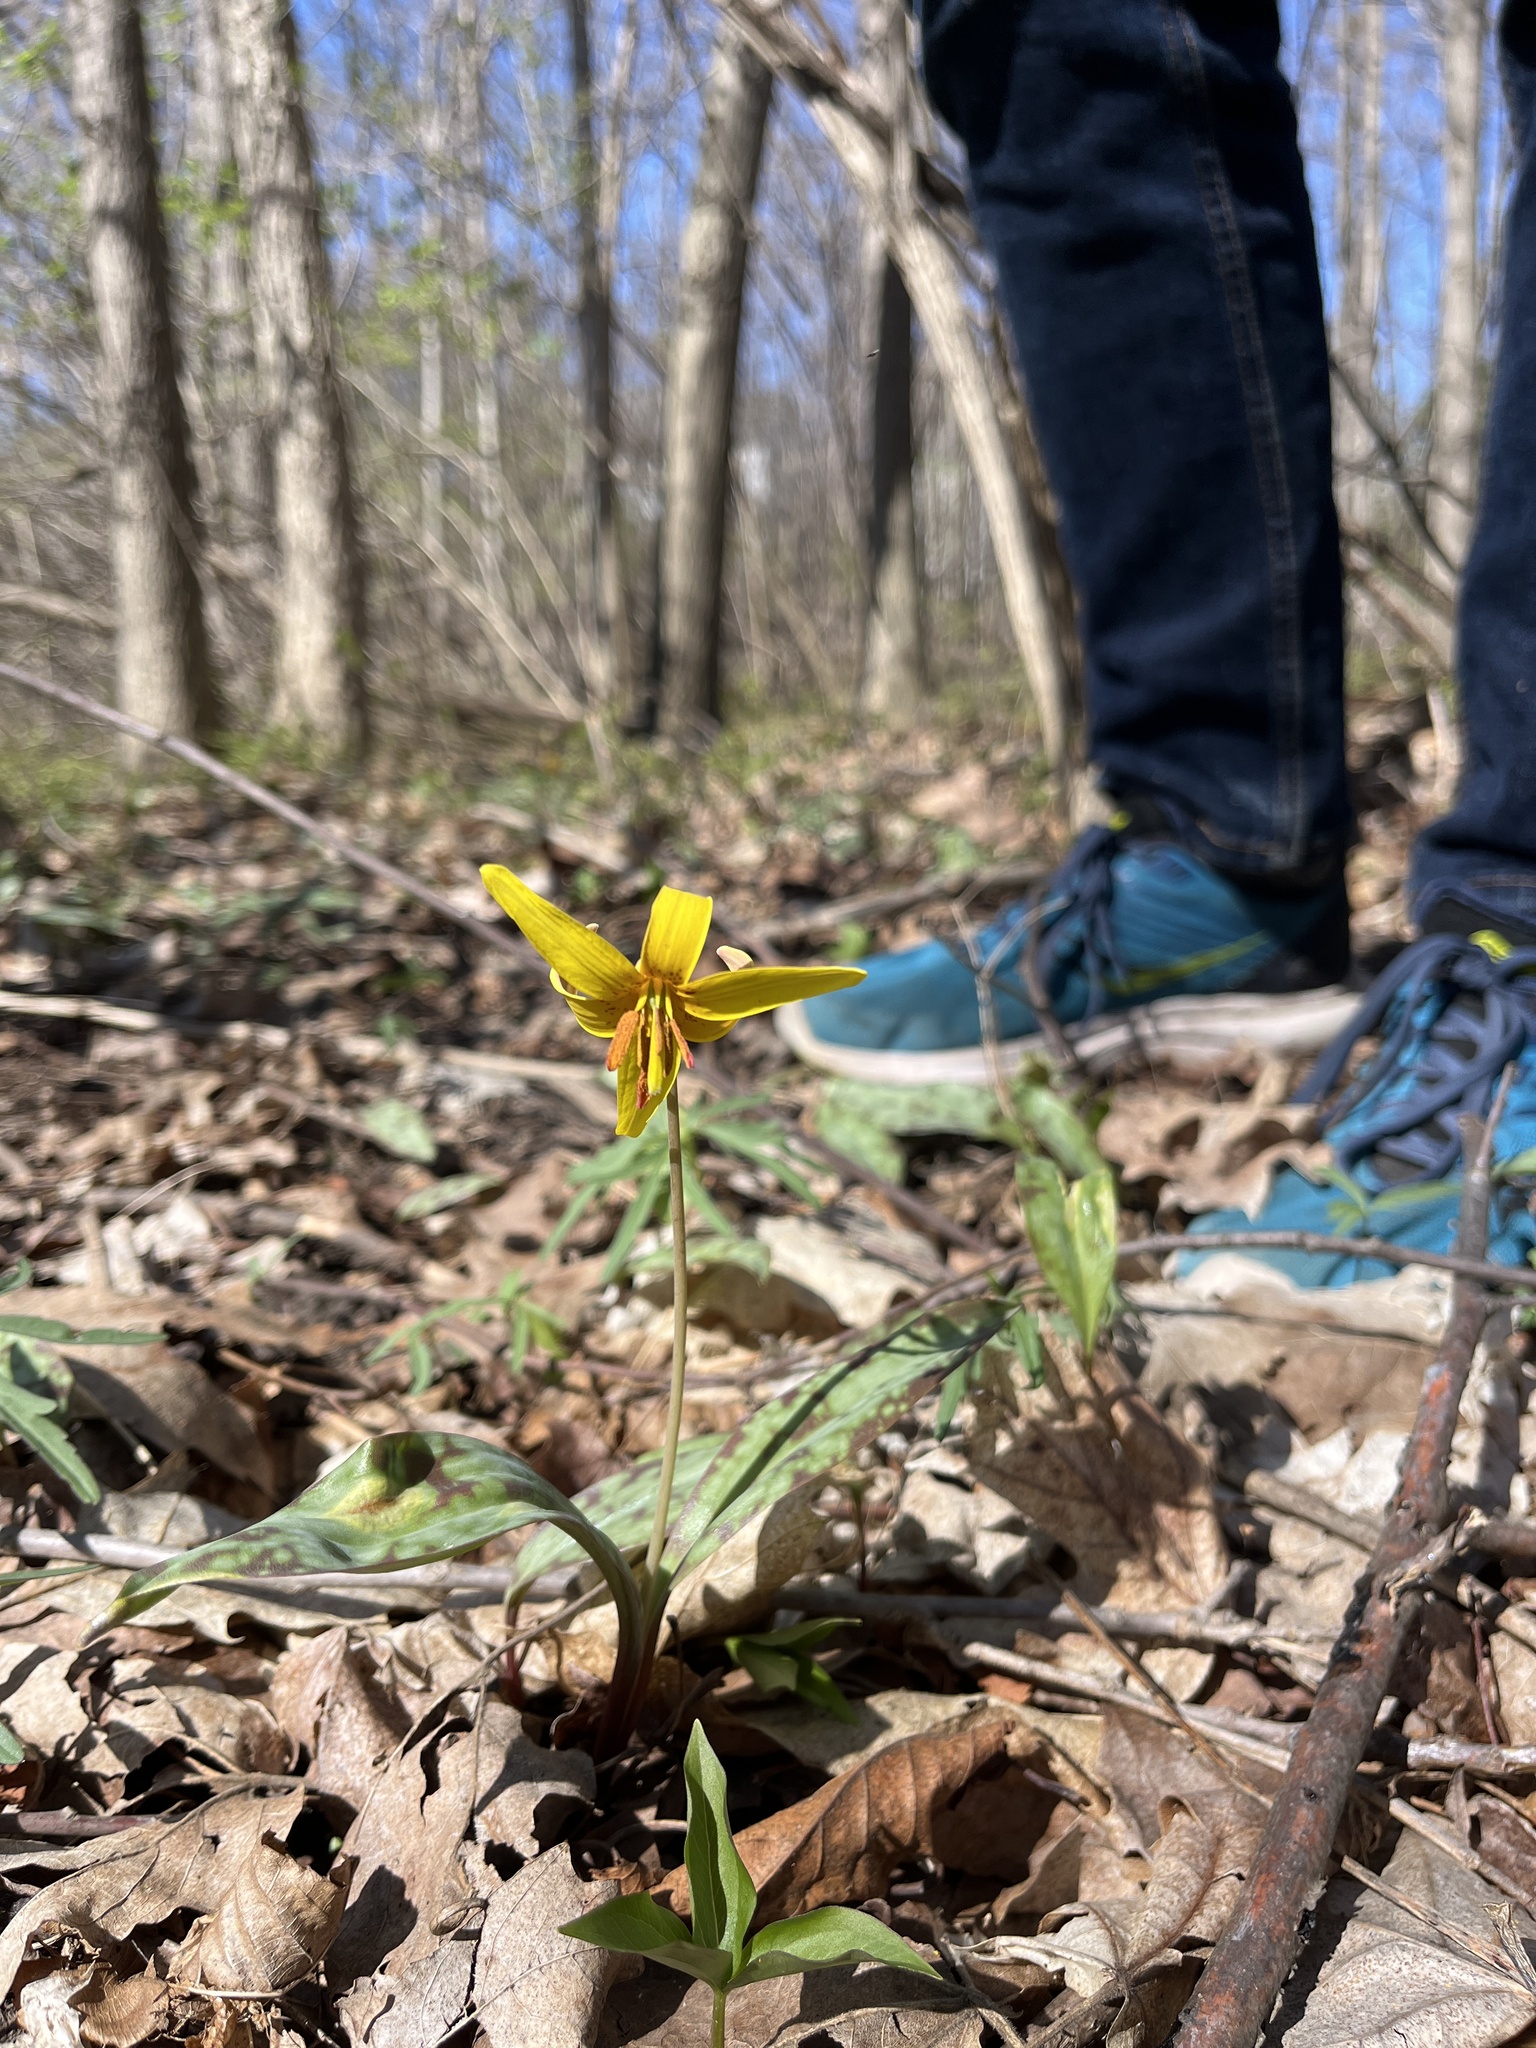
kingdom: Plantae
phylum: Tracheophyta
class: Liliopsida
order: Liliales
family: Liliaceae
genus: Erythronium
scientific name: Erythronium americanum
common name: Yellow adder's-tongue
